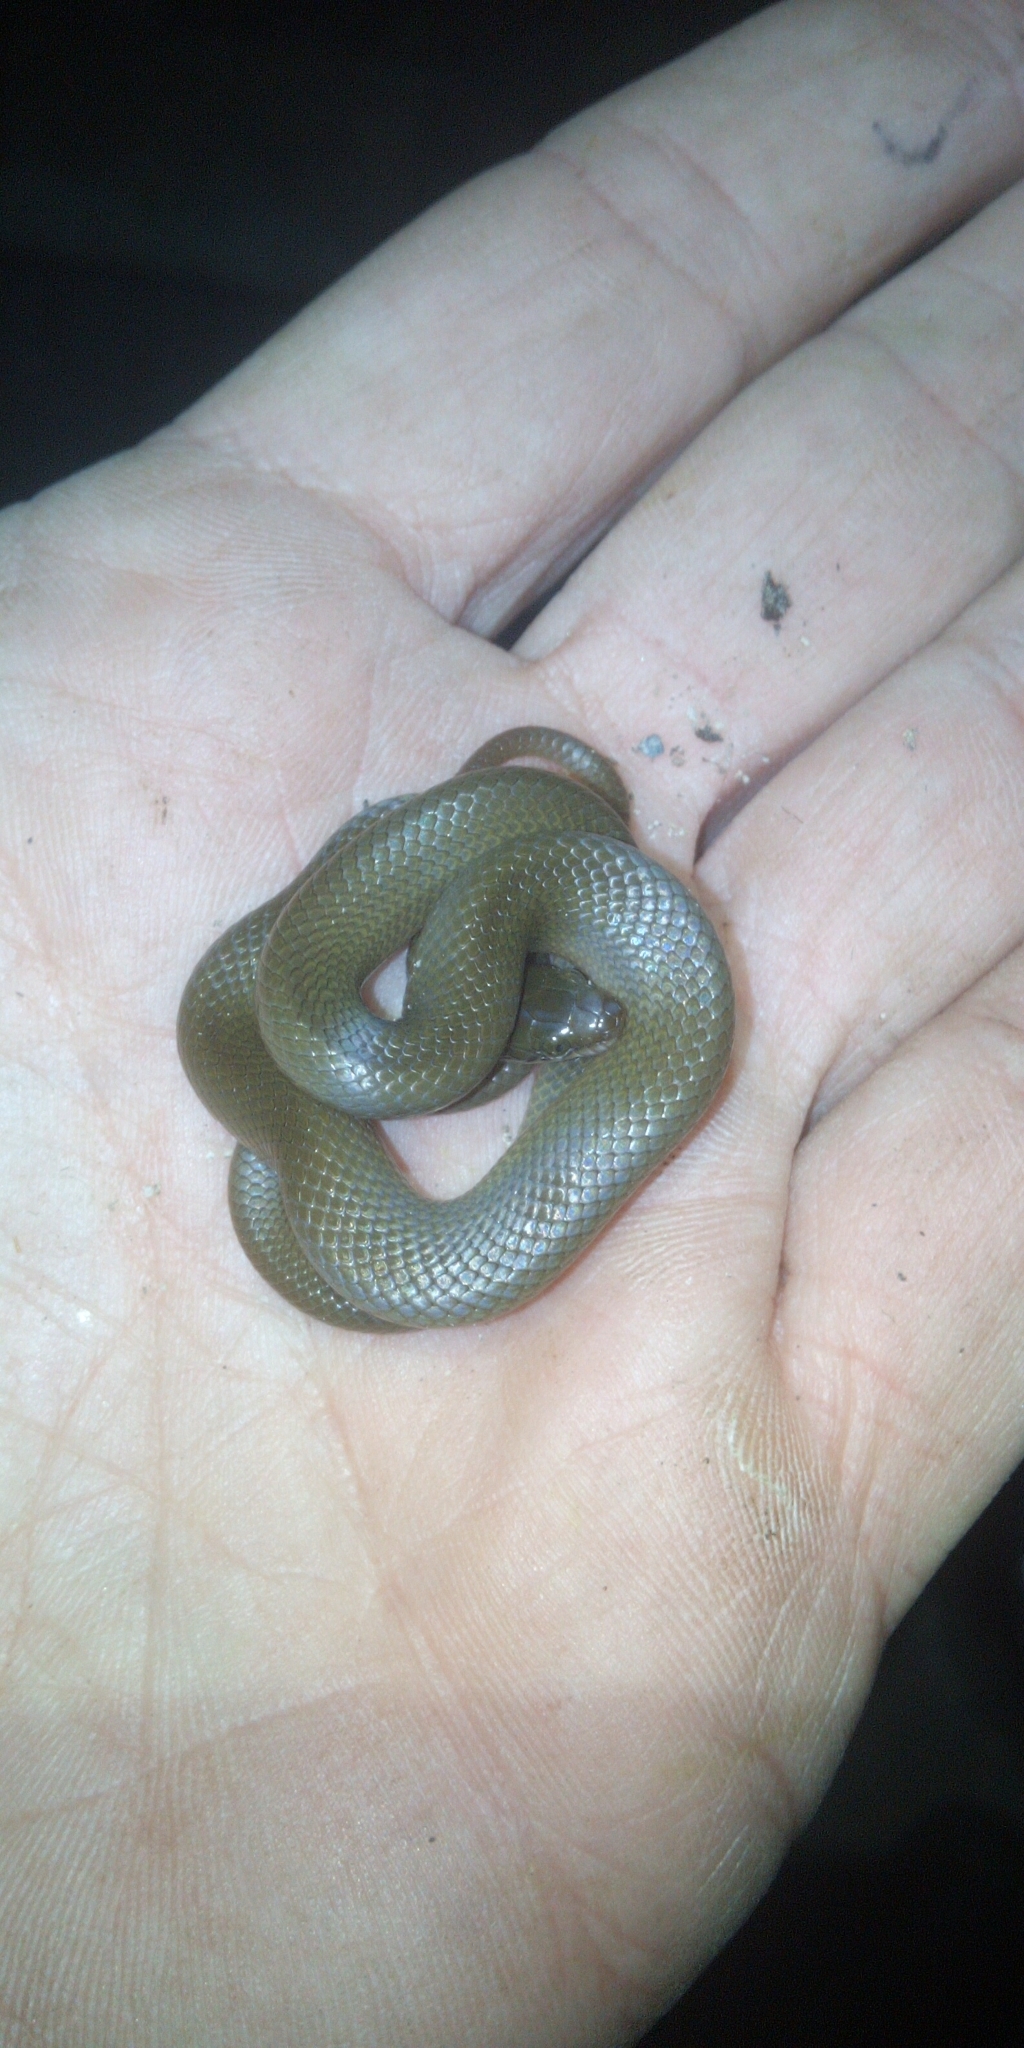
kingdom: Animalia
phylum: Chordata
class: Squamata
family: Lamprophiidae
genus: Lycodonomorphus
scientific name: Lycodonomorphus rufulus
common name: Brown water snake
